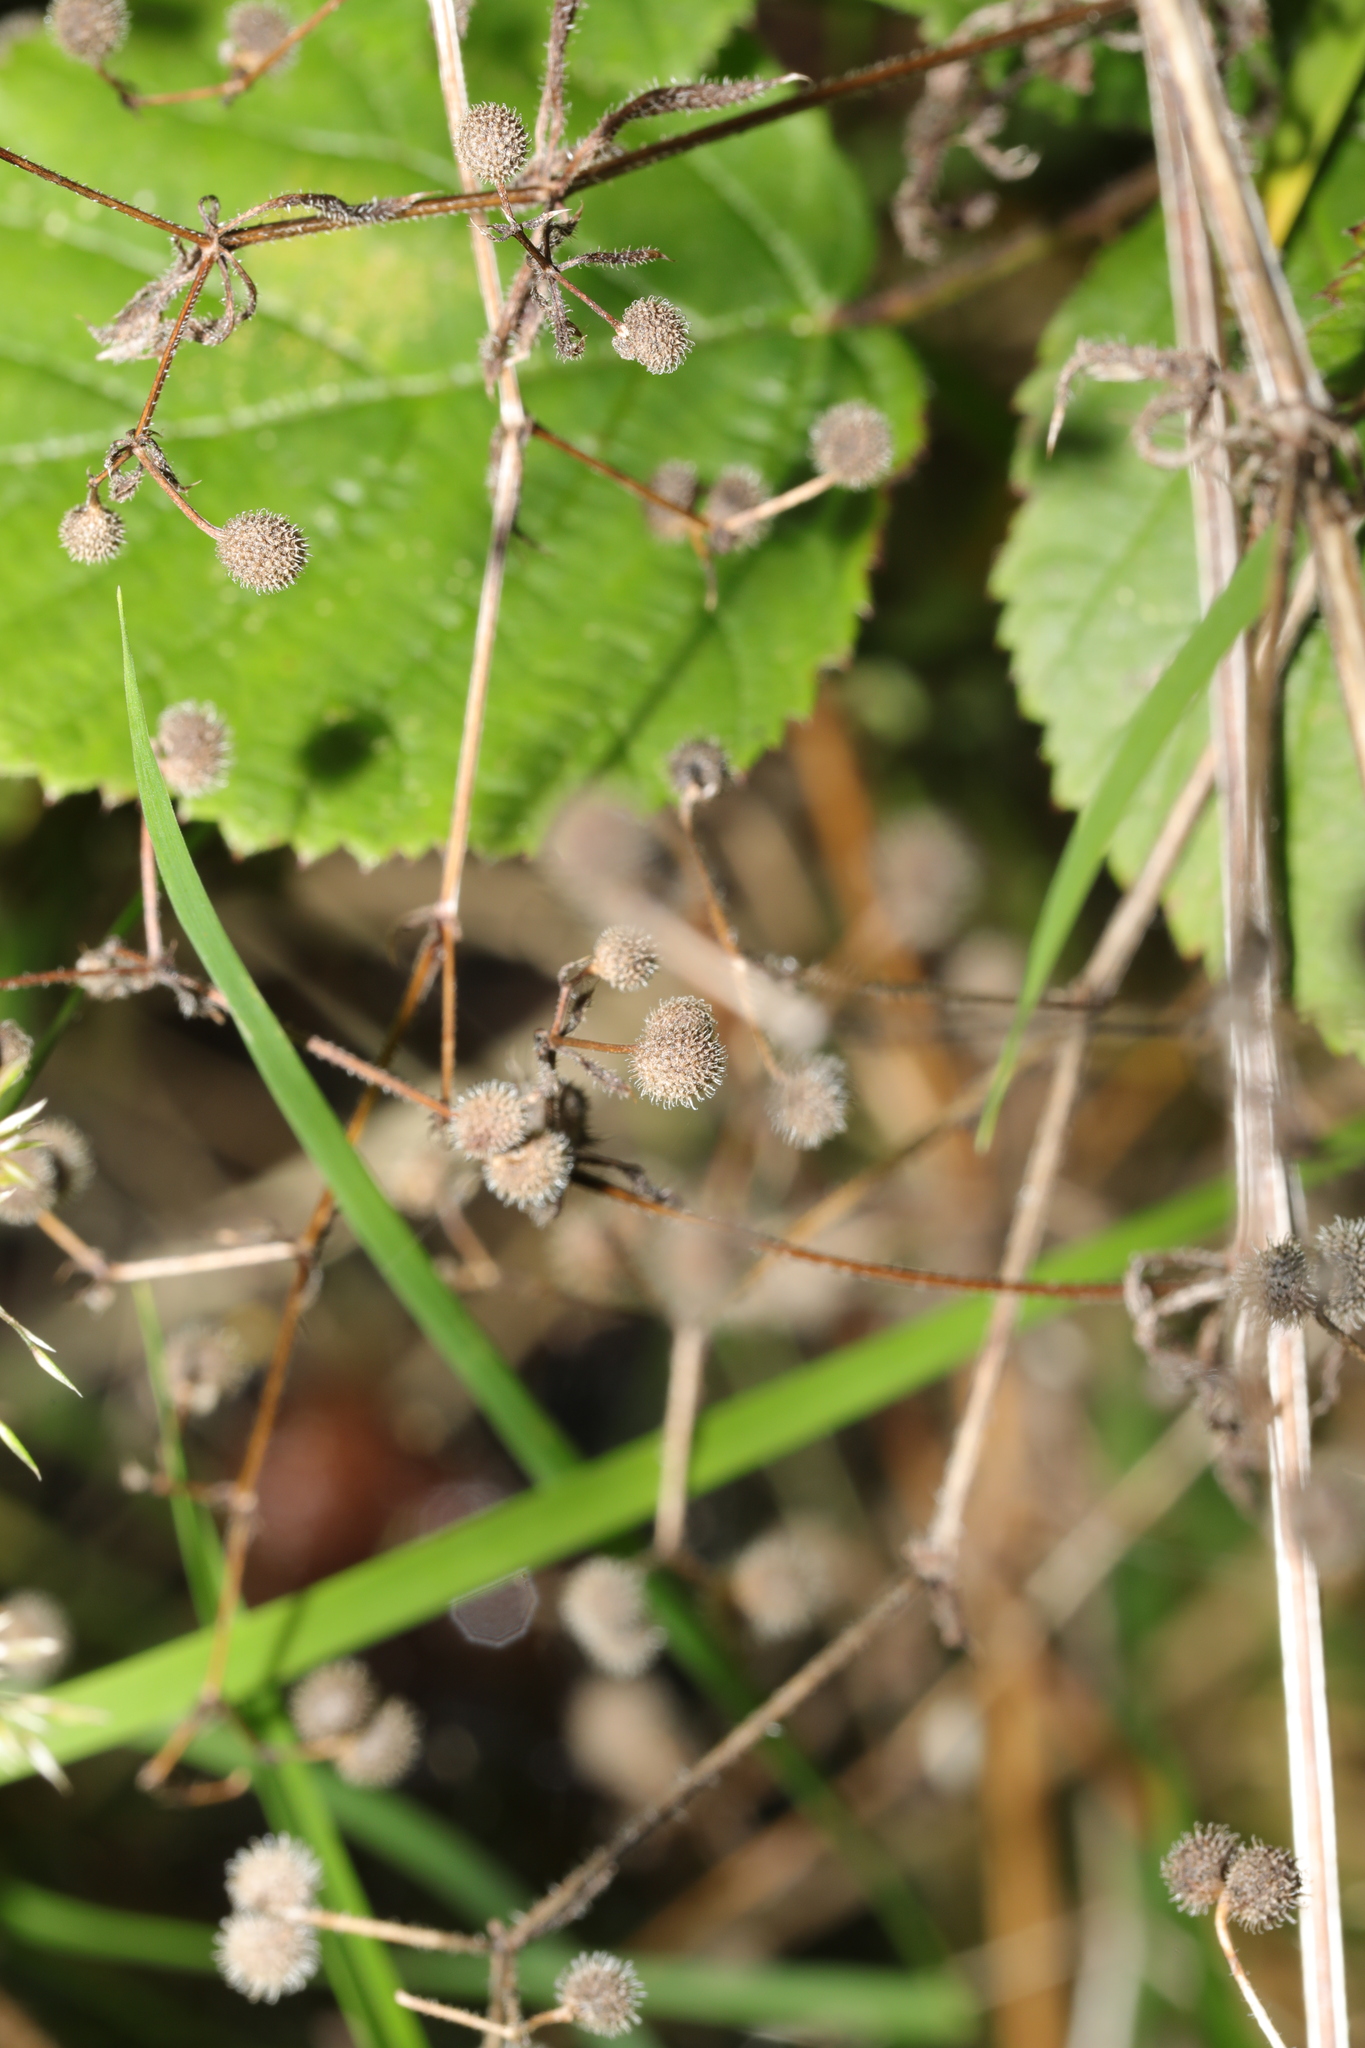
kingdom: Plantae
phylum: Tracheophyta
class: Magnoliopsida
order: Gentianales
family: Rubiaceae
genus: Galium
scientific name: Galium aparine
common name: Cleavers
